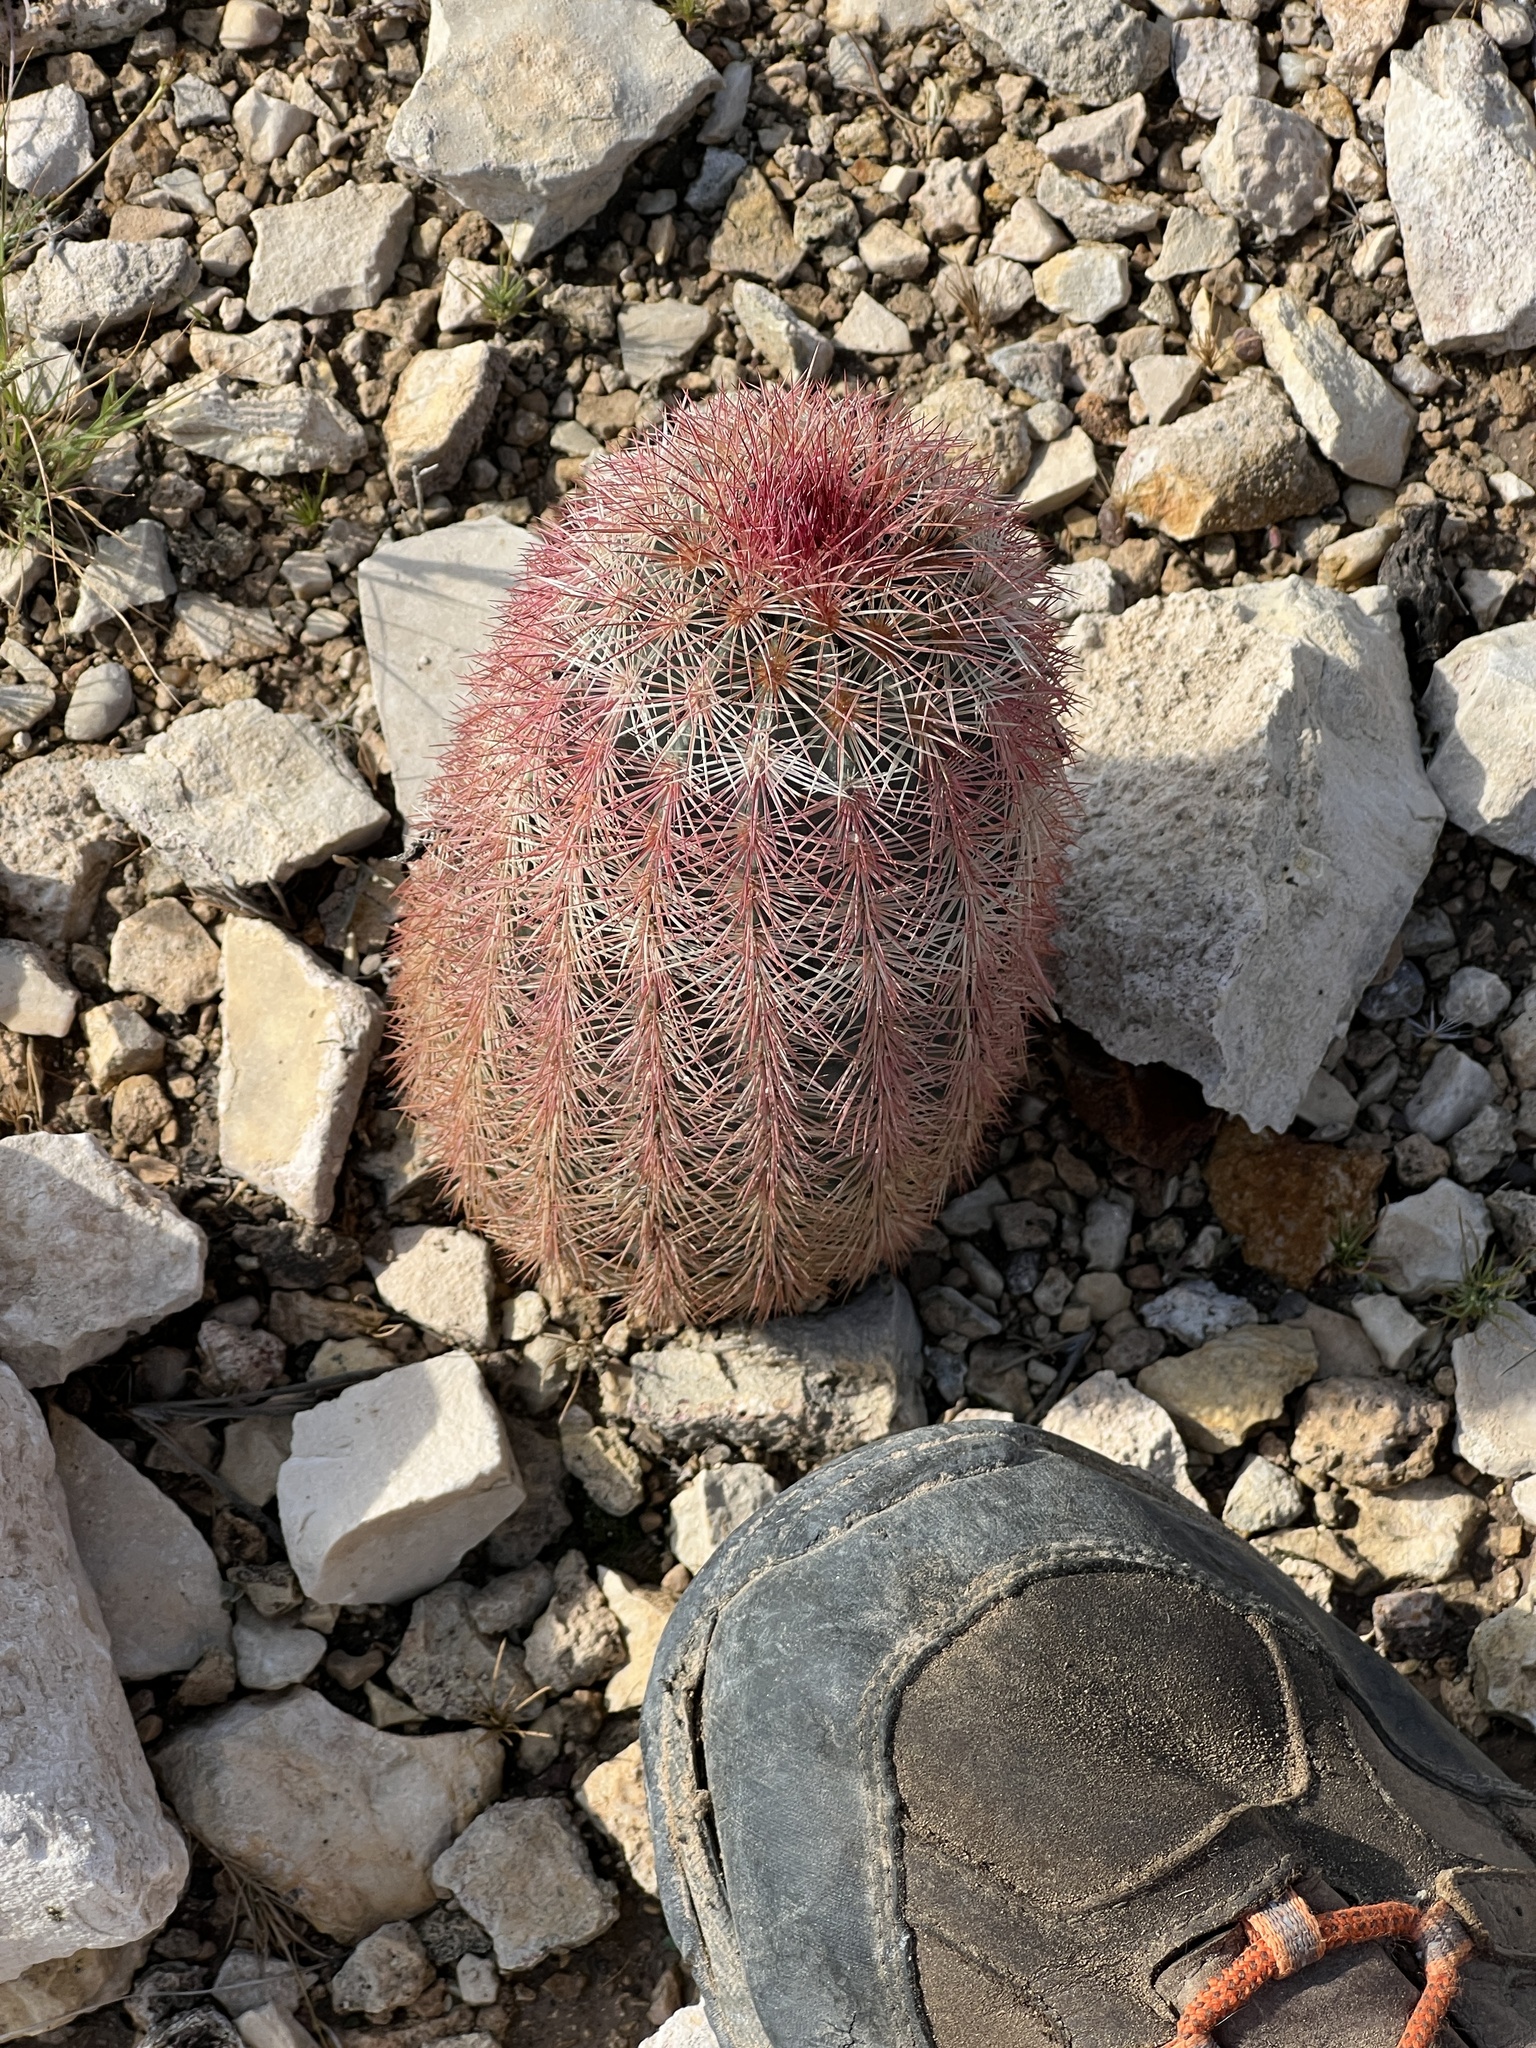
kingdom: Plantae
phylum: Tracheophyta
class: Magnoliopsida
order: Caryophyllales
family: Cactaceae
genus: Echinocereus
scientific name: Echinocereus dasyacanthus
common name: Spiny hedgehog cactus
